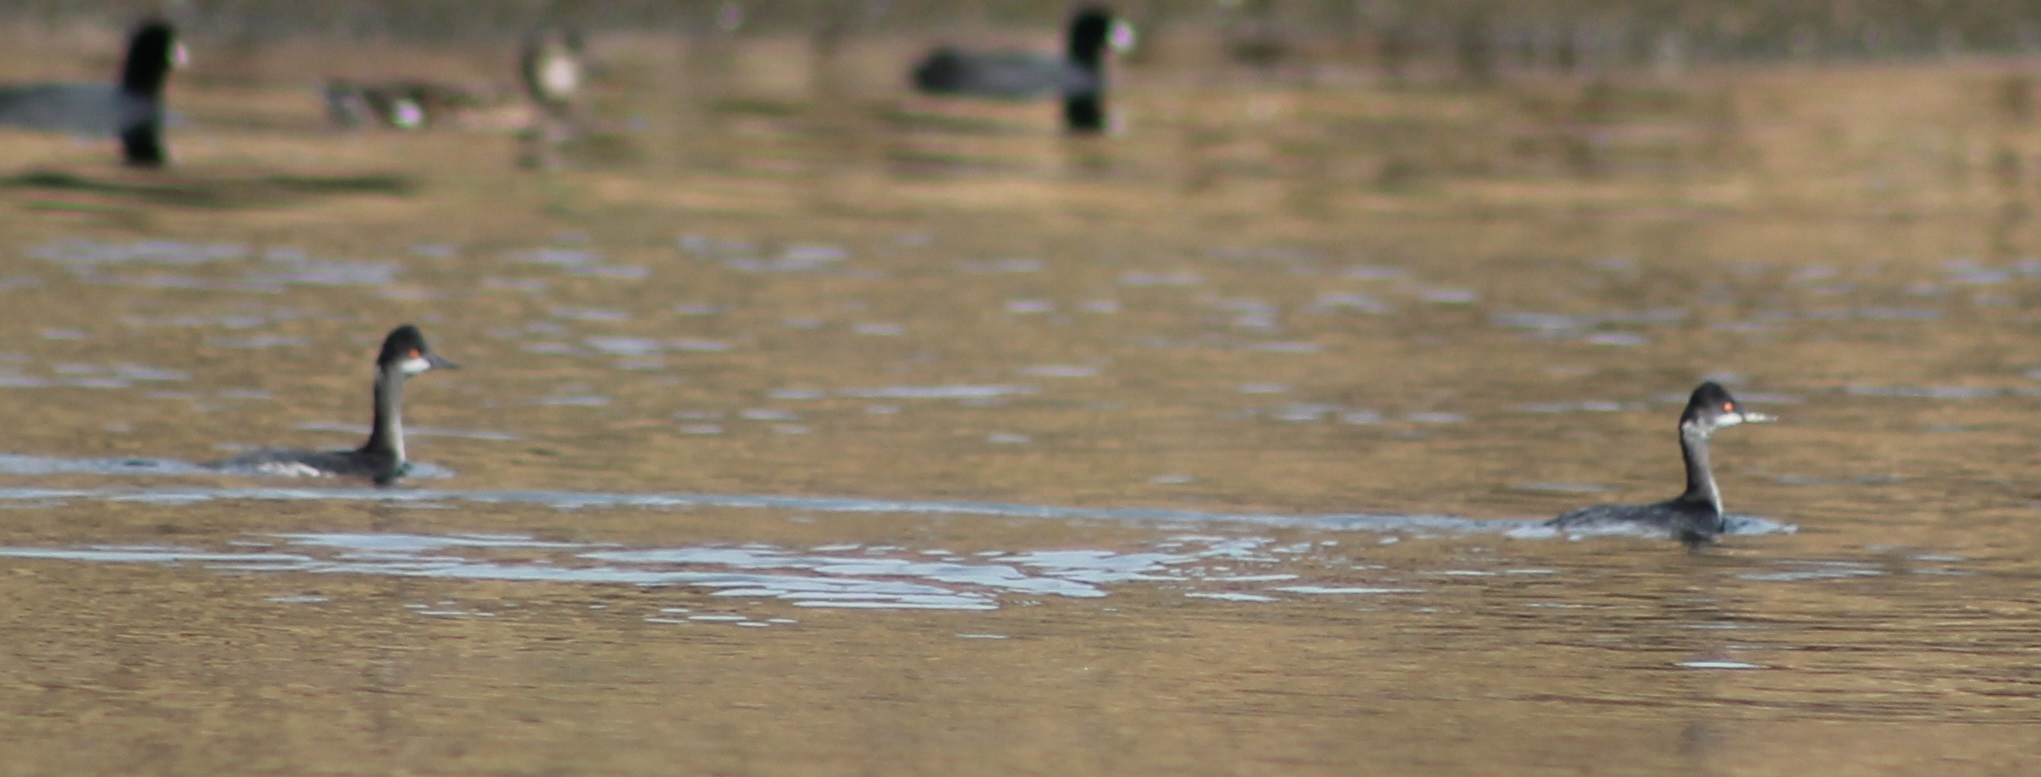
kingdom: Animalia
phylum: Chordata
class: Aves
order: Podicipediformes
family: Podicipedidae
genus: Podiceps
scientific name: Podiceps nigricollis
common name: Black-necked grebe
